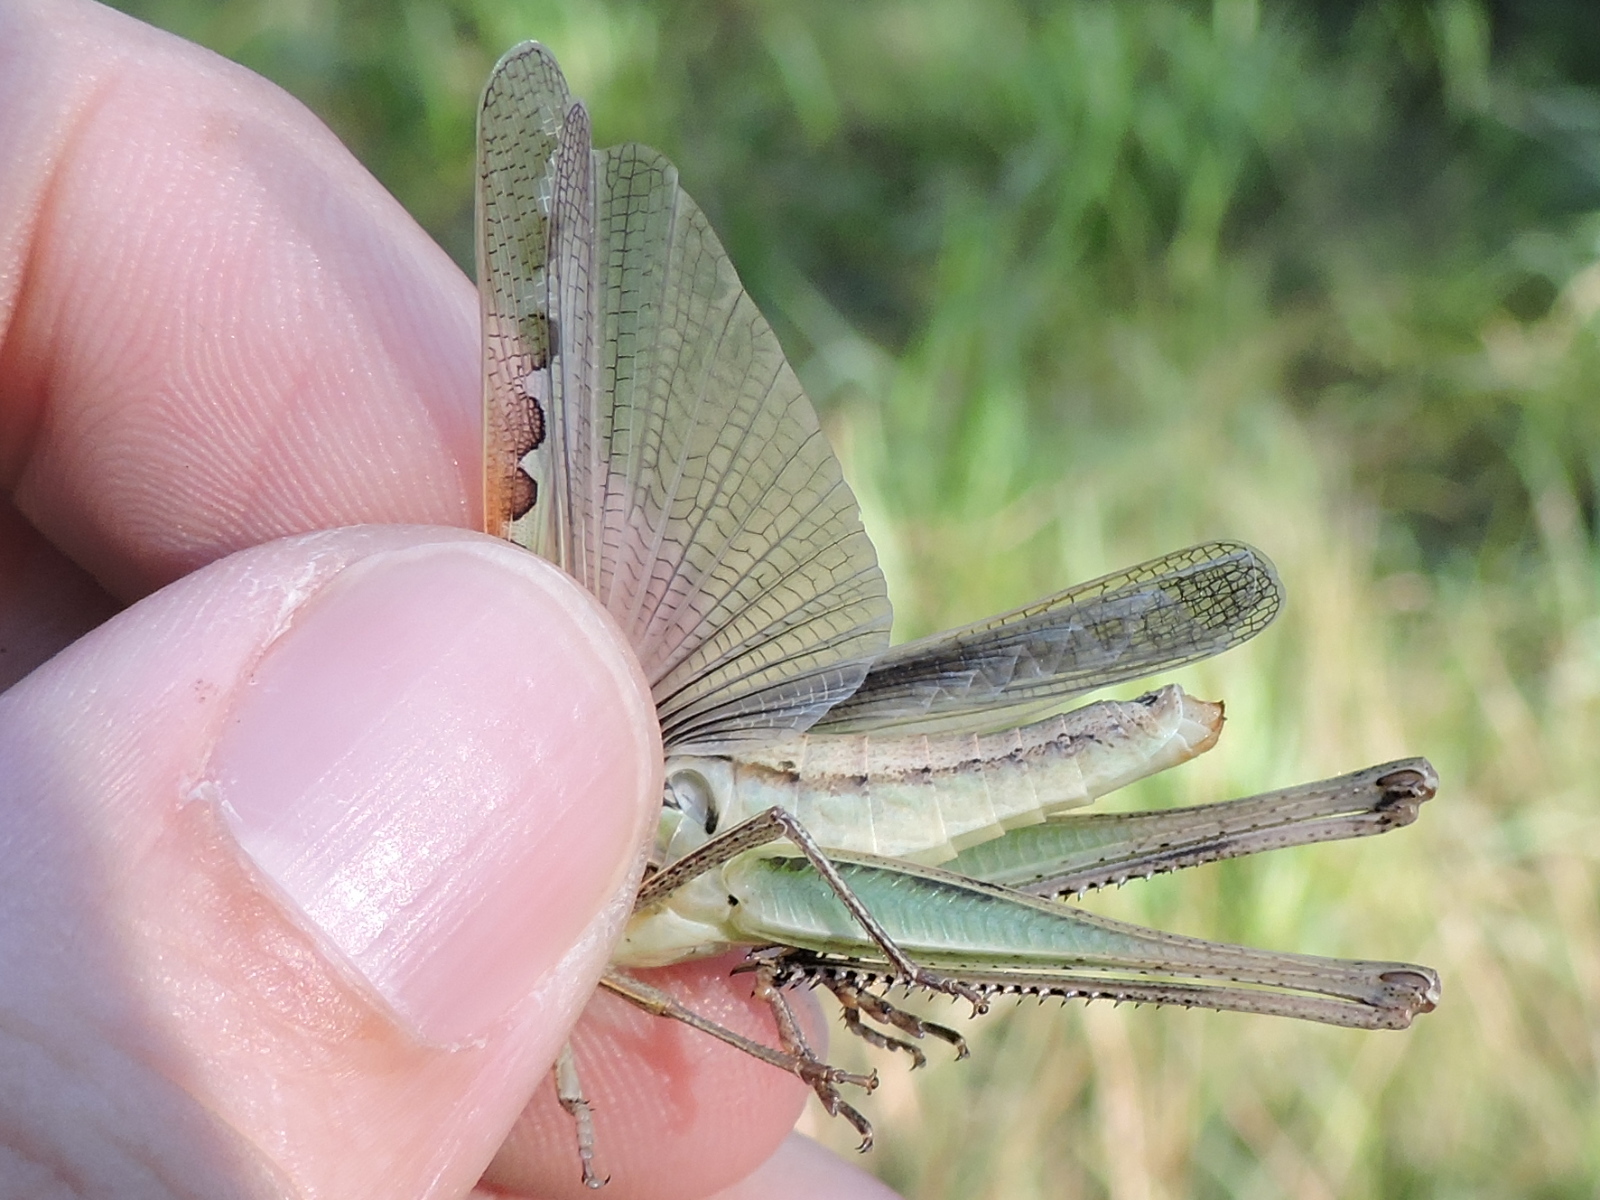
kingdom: Animalia
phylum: Arthropoda
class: Insecta
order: Orthoptera
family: Acrididae
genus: Syrbula
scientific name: Syrbula admirabilis
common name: Handsome grasshopper
